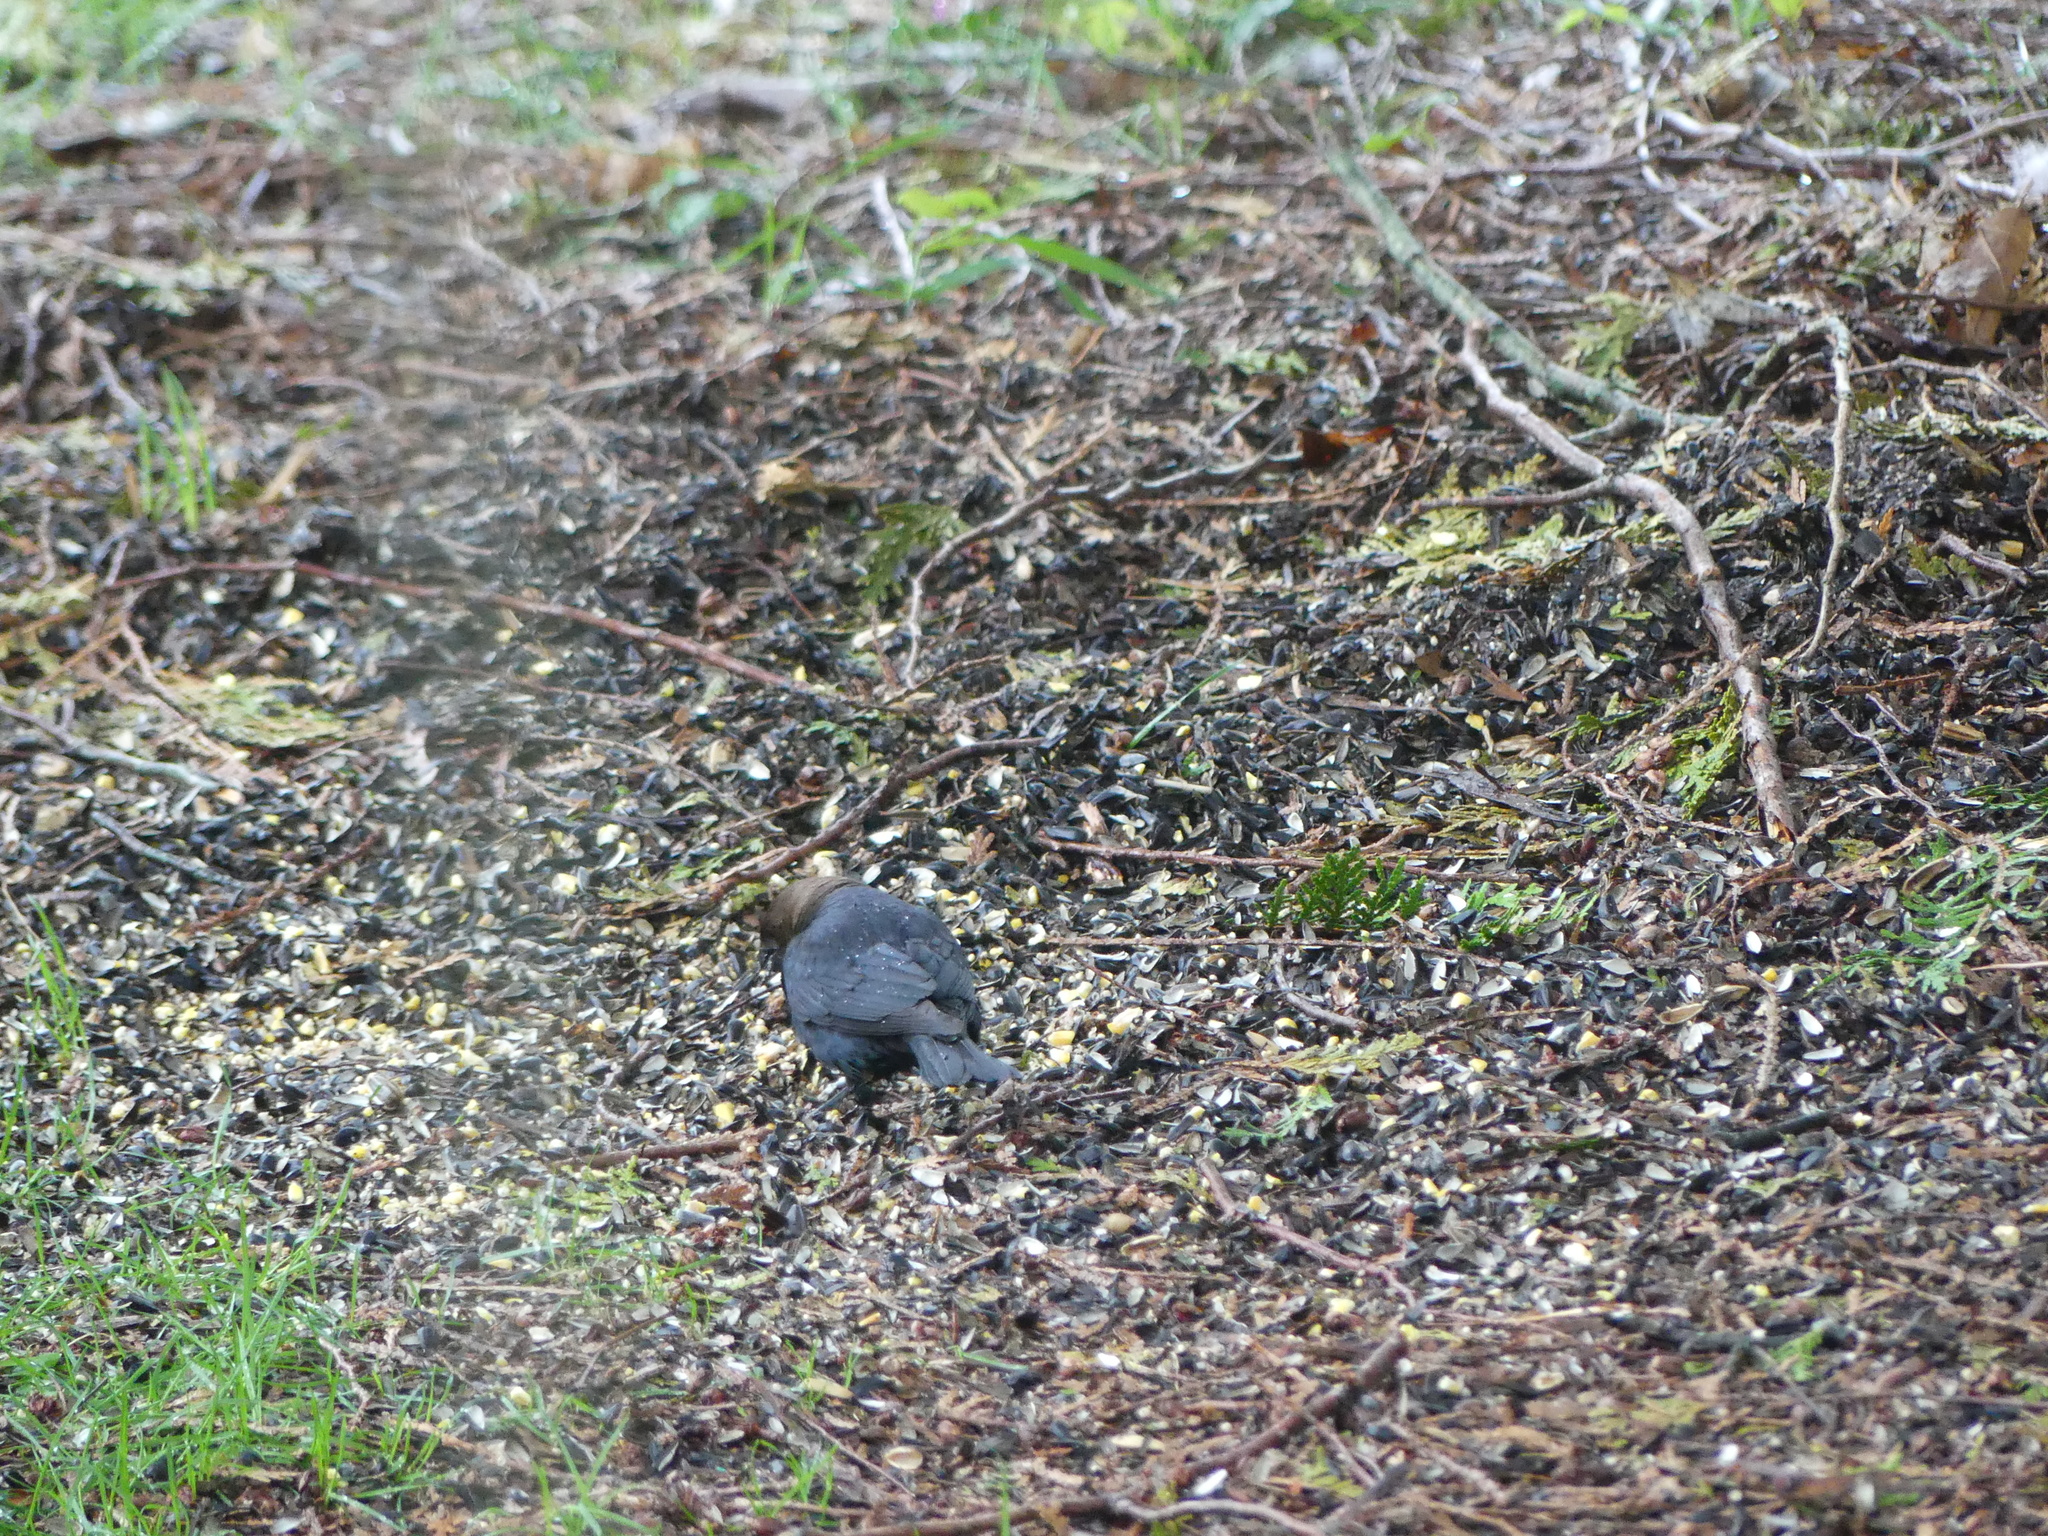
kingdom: Animalia
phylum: Chordata
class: Aves
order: Passeriformes
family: Icteridae
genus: Molothrus
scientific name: Molothrus ater
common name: Brown-headed cowbird
